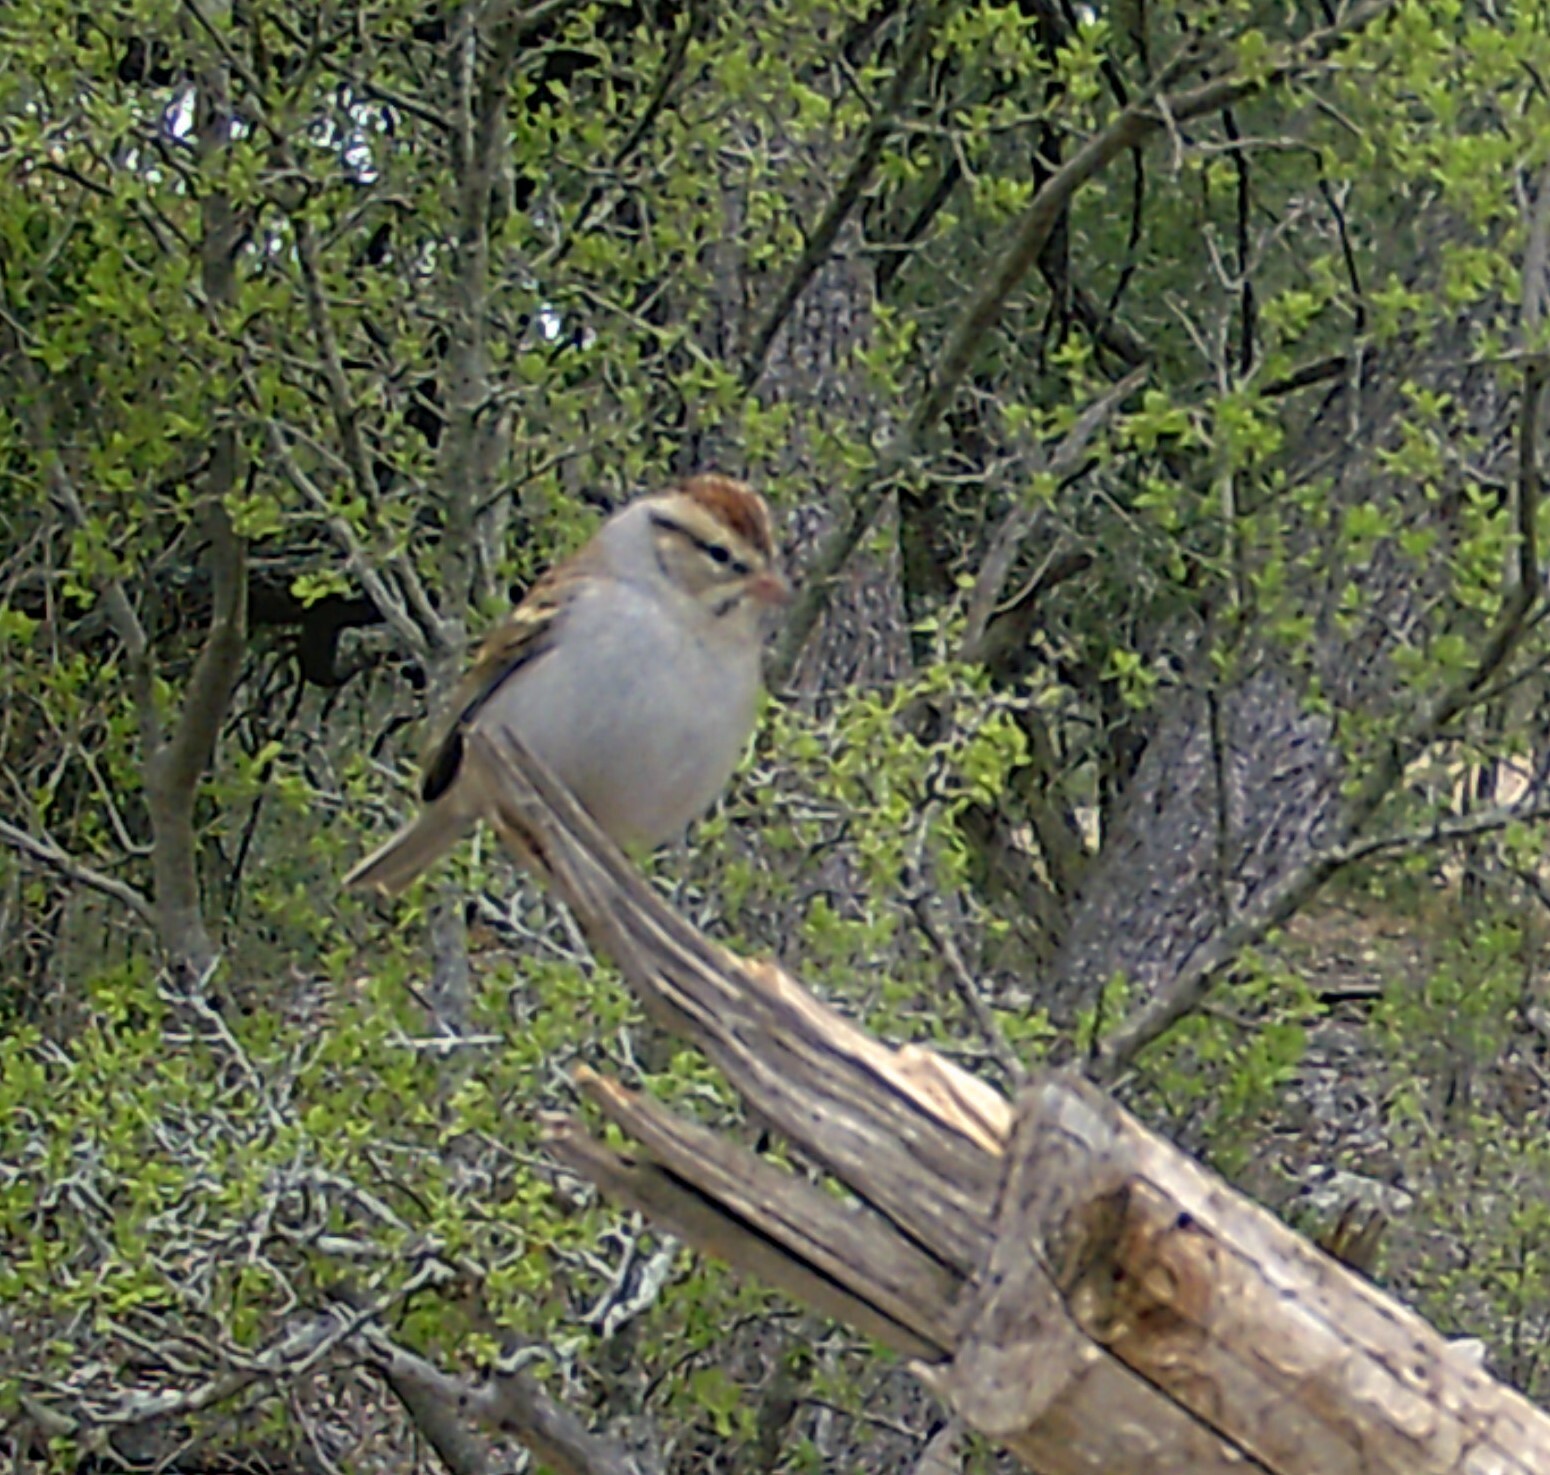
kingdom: Animalia
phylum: Chordata
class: Aves
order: Passeriformes
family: Passerellidae
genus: Spizella
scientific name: Spizella passerina
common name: Chipping sparrow
